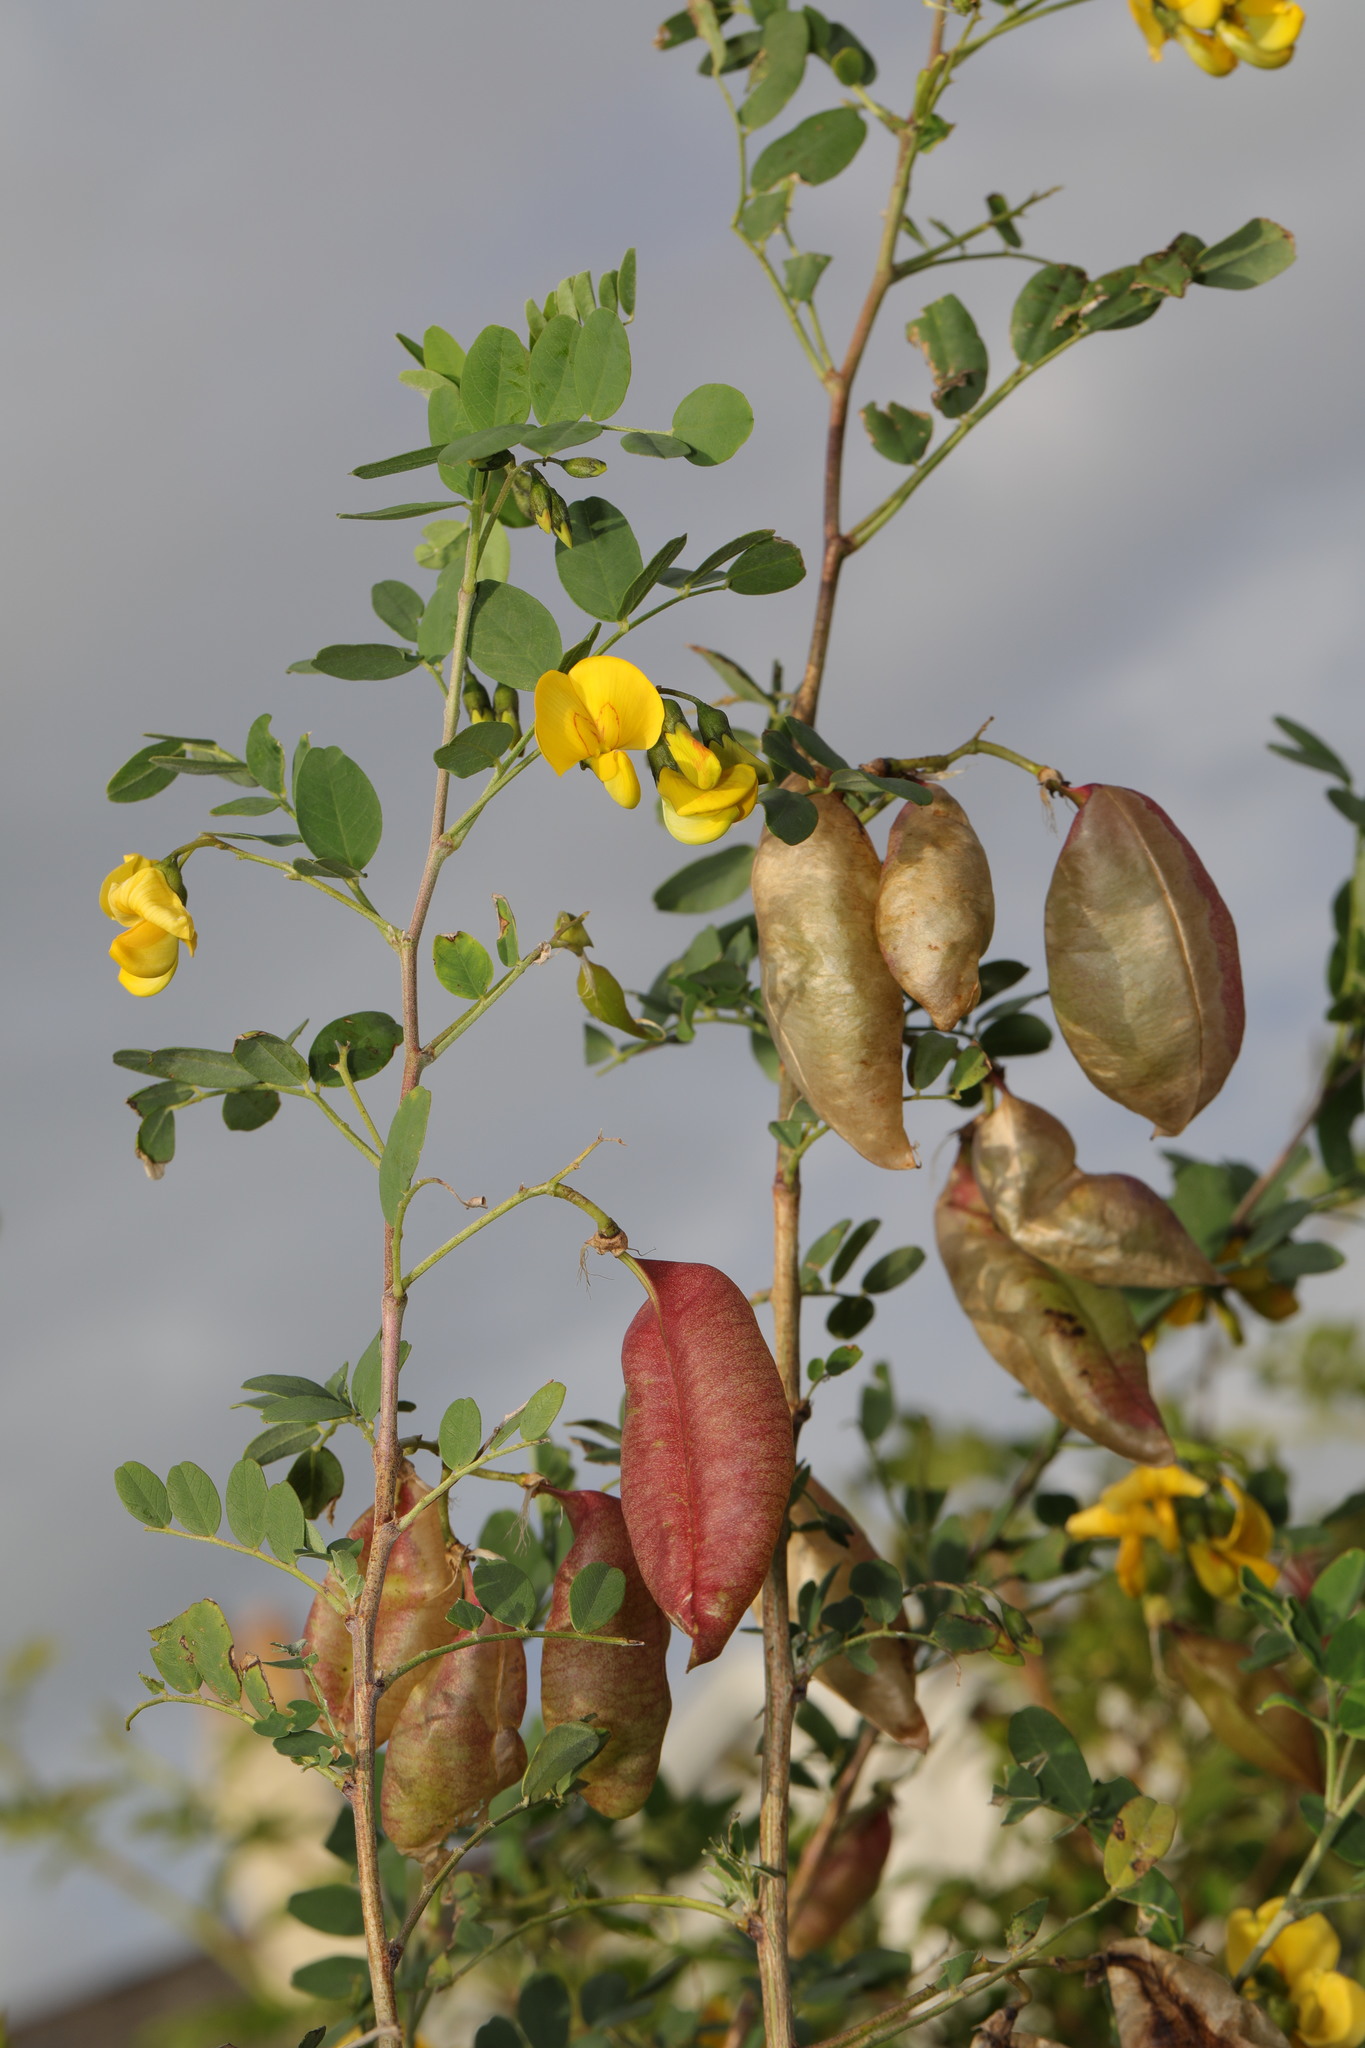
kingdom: Plantae
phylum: Tracheophyta
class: Magnoliopsida
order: Fabales
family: Fabaceae
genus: Colutea
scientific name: Colutea arborescens
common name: Bladder-senna
